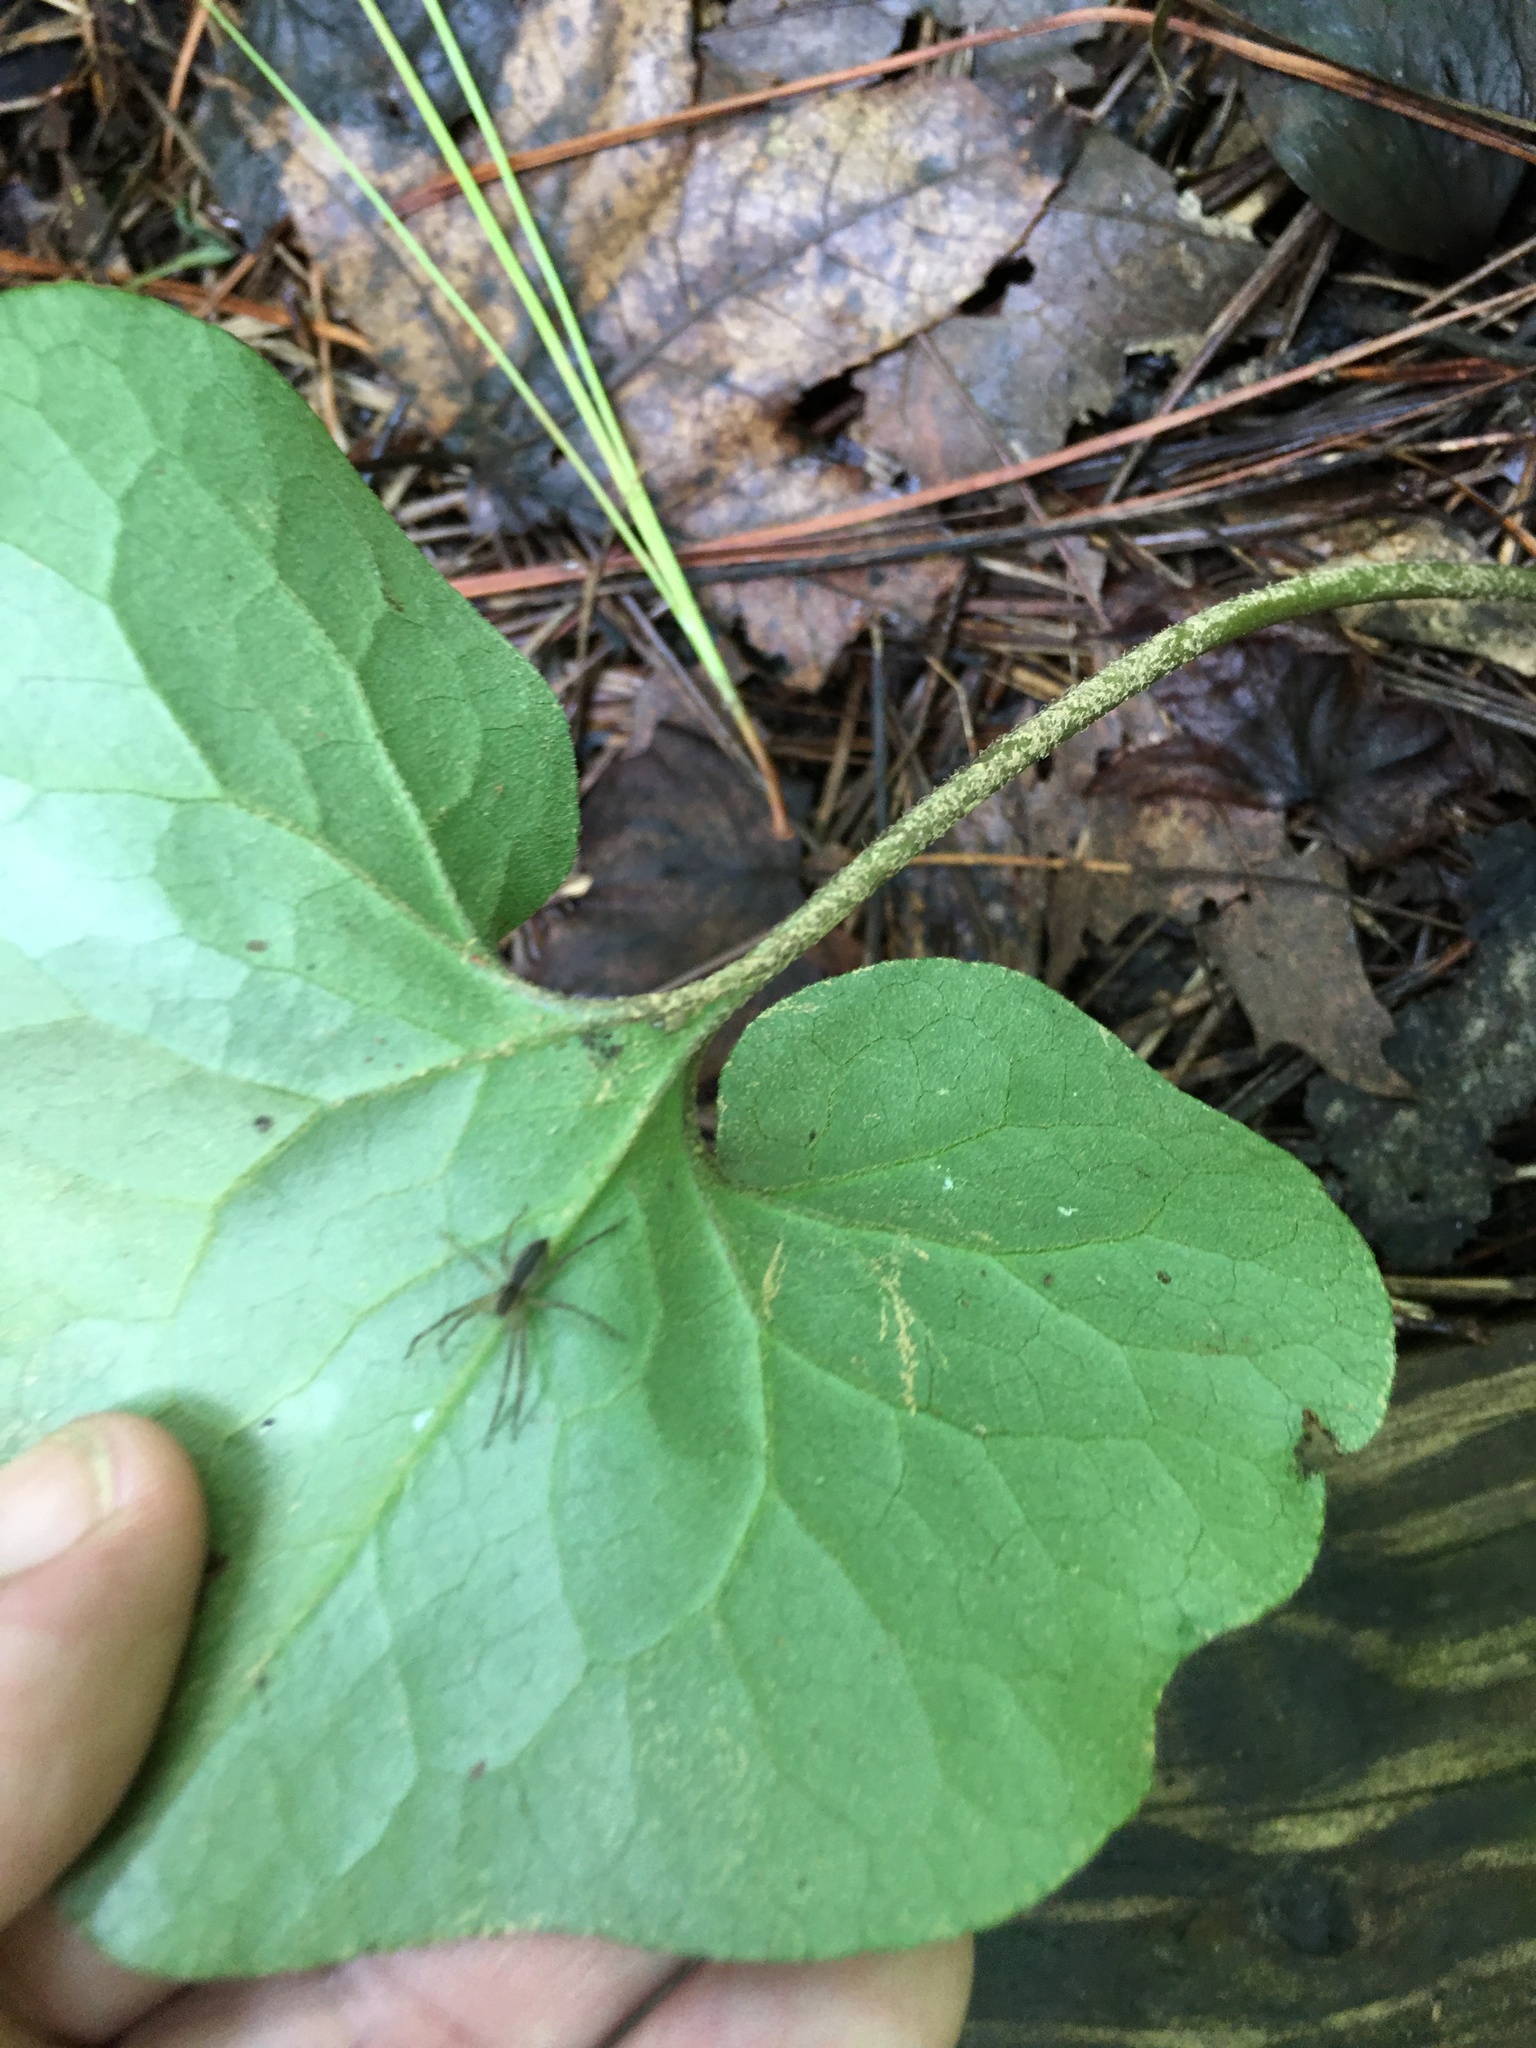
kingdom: Plantae
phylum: Tracheophyta
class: Magnoliopsida
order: Piperales
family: Aristolochiaceae
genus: Asarum
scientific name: Asarum canadense
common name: Wild ginger
